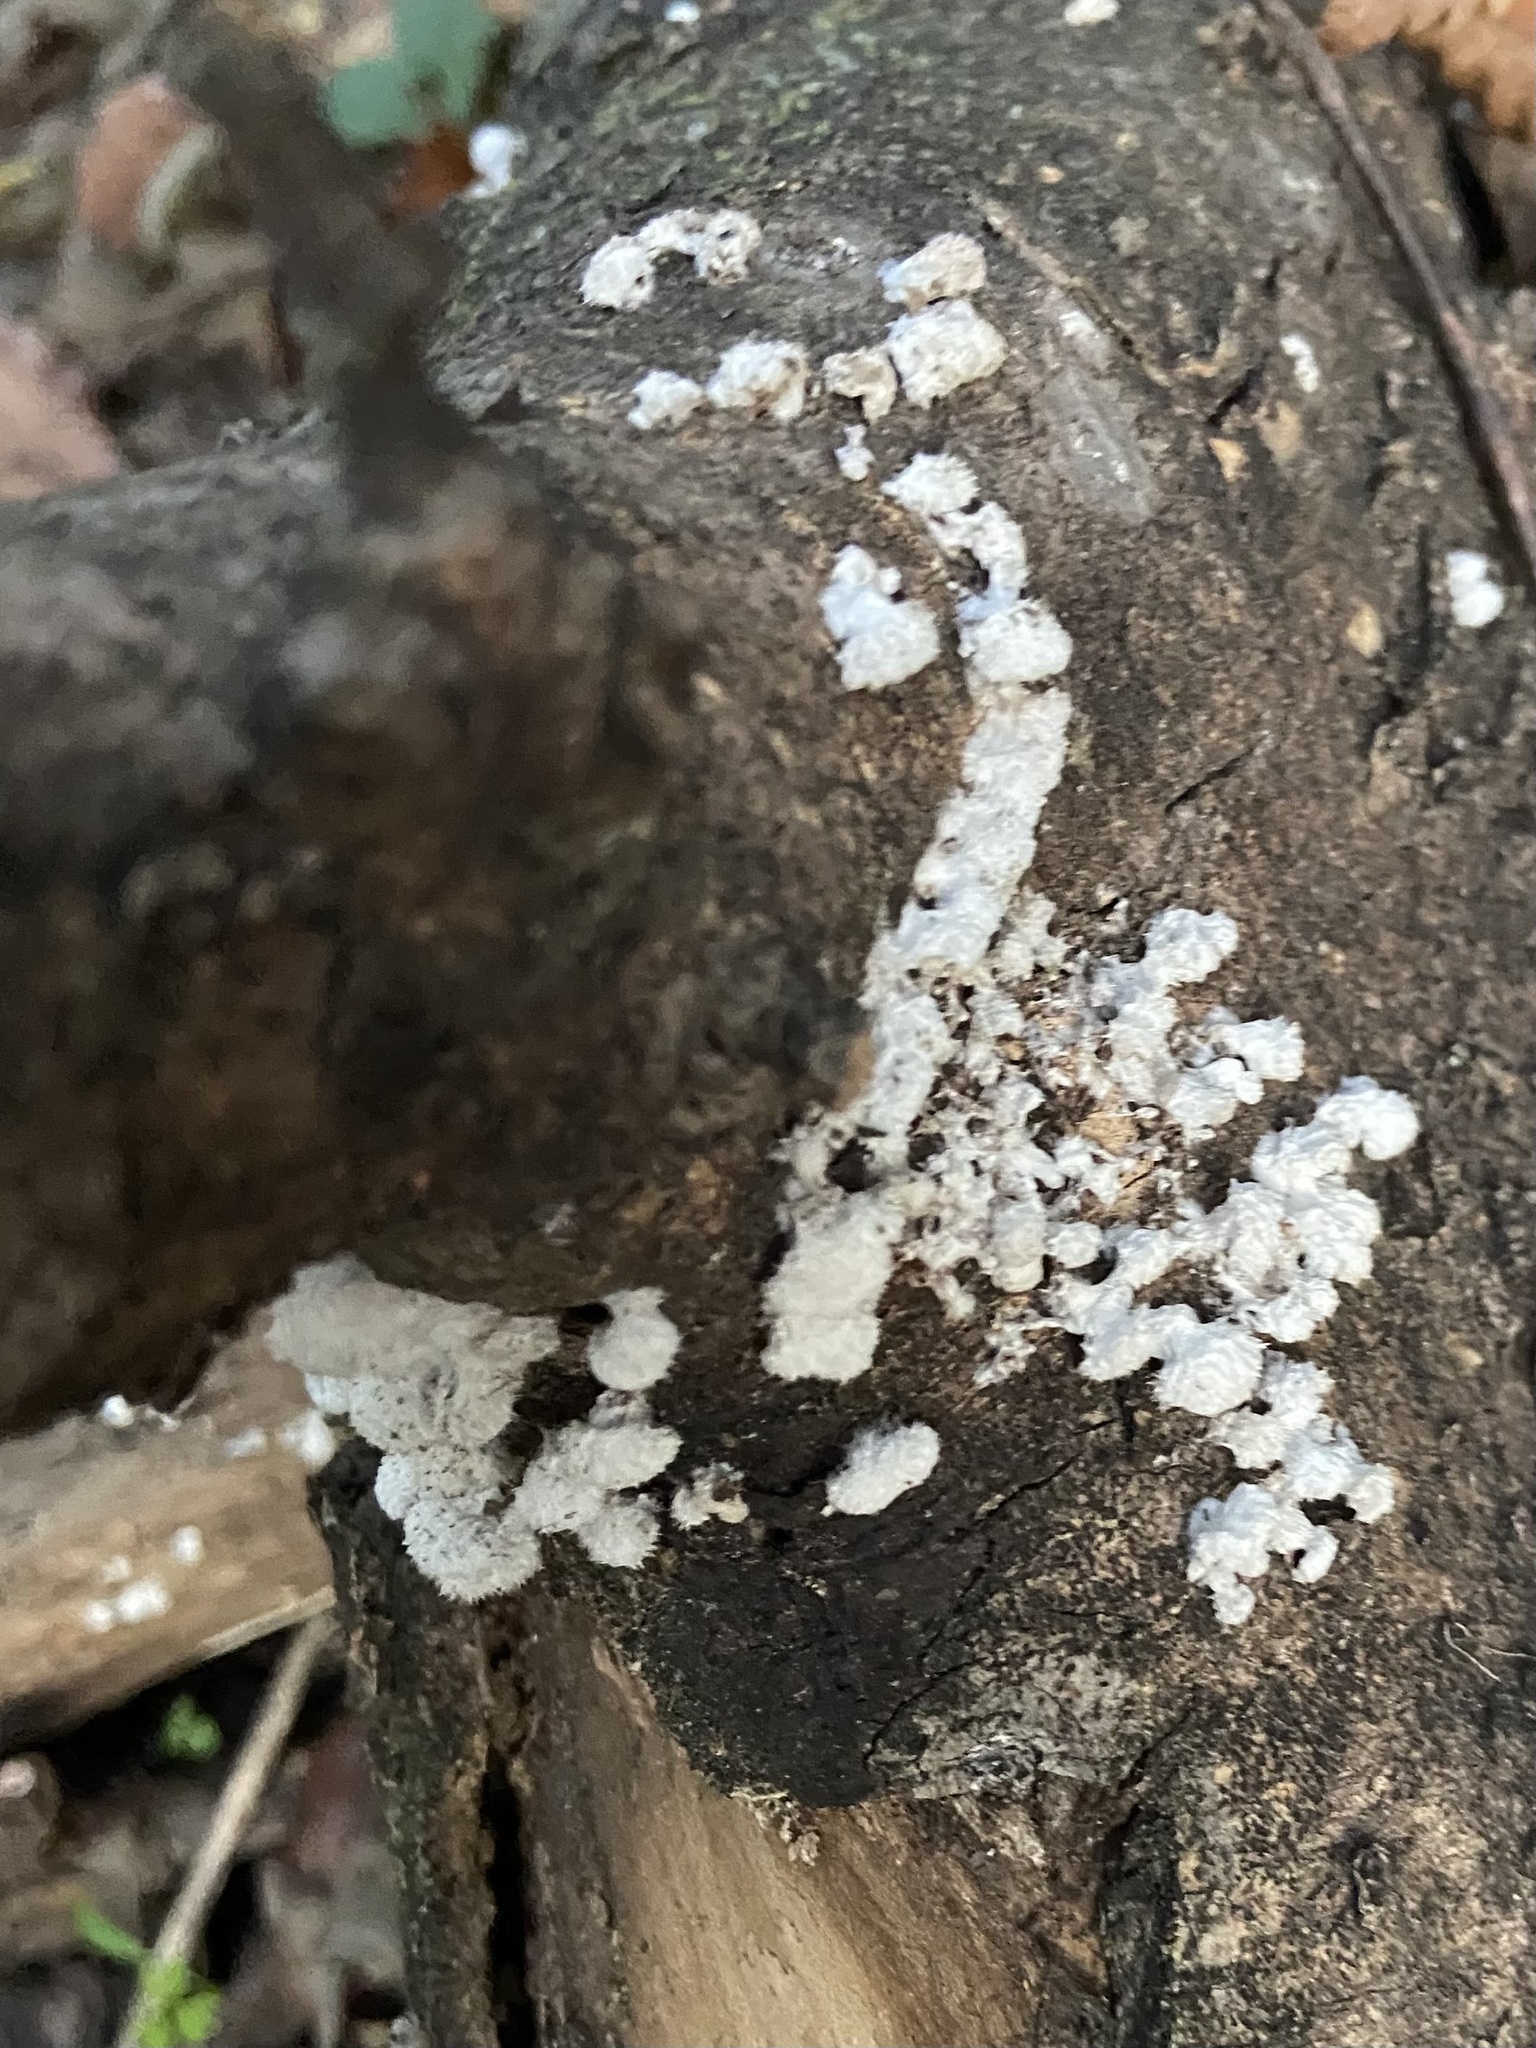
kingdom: Fungi
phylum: Basidiomycota
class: Agaricomycetes
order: Agaricales
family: Schizophyllaceae
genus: Schizophyllum
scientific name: Schizophyllum commune
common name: Common porecrust
